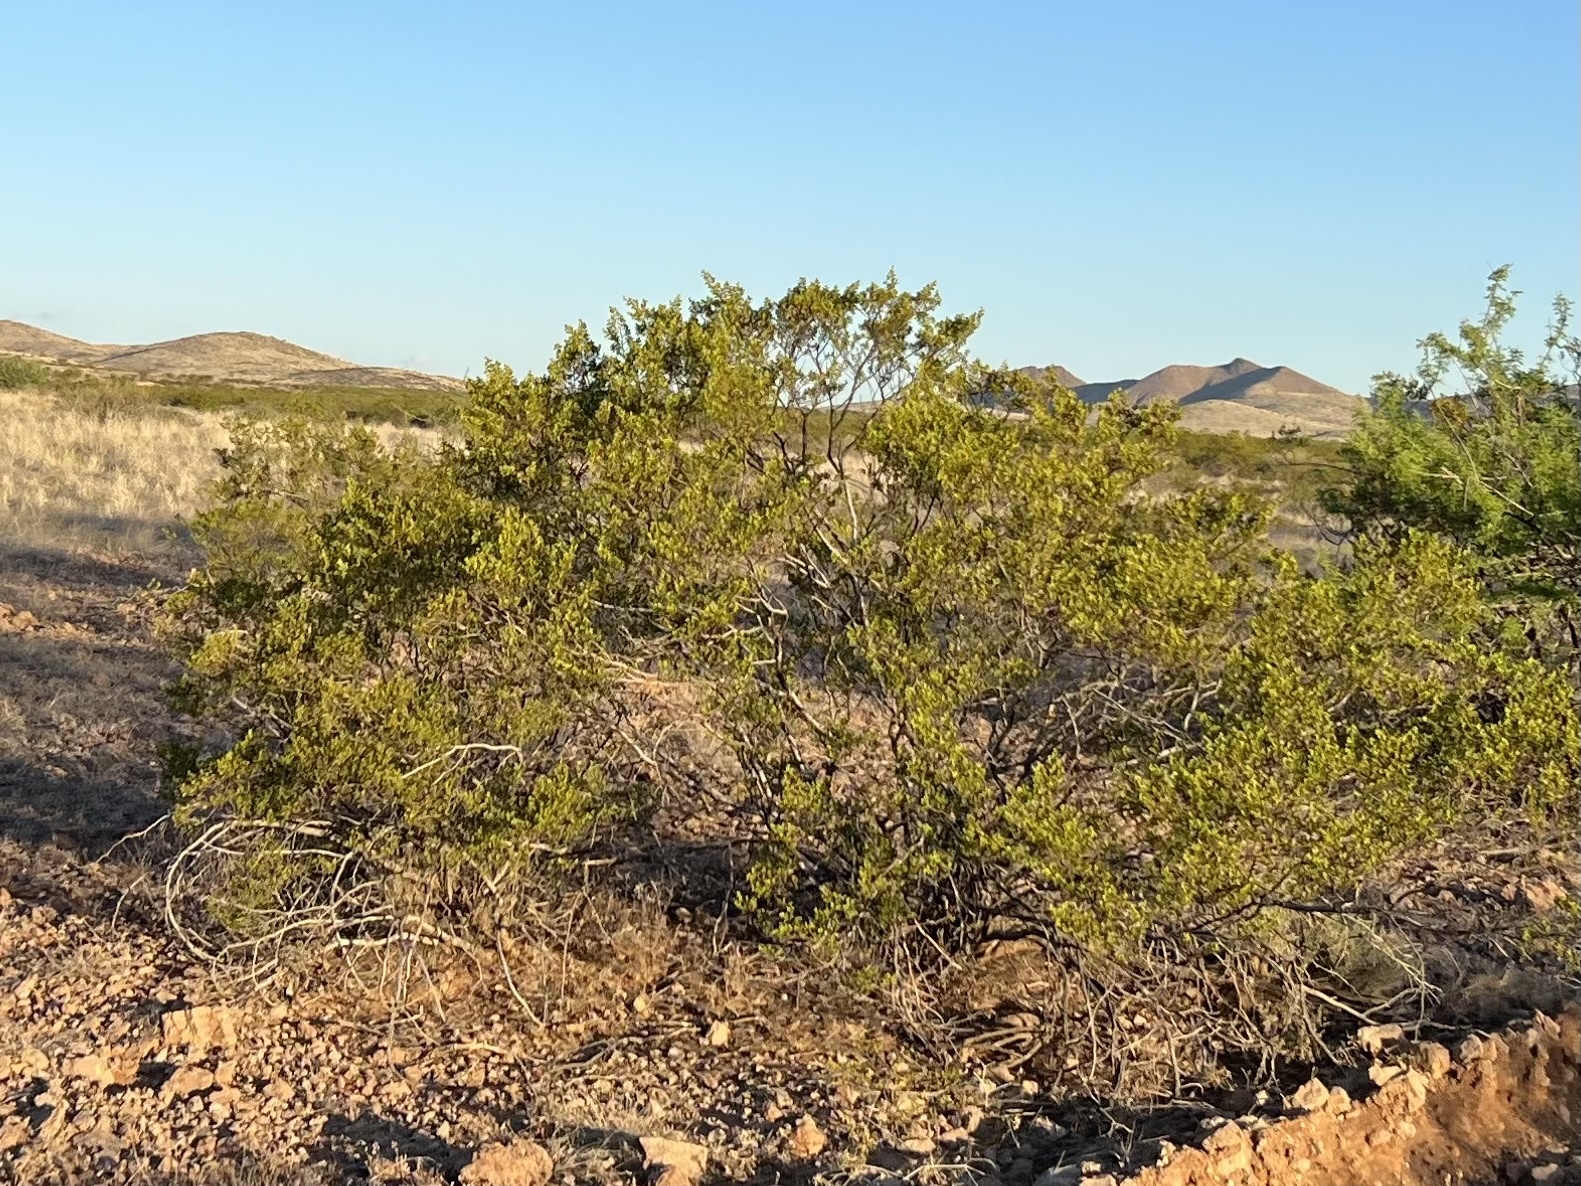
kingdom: Plantae
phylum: Tracheophyta
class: Magnoliopsida
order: Zygophyllales
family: Zygophyllaceae
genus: Larrea
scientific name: Larrea tridentata
